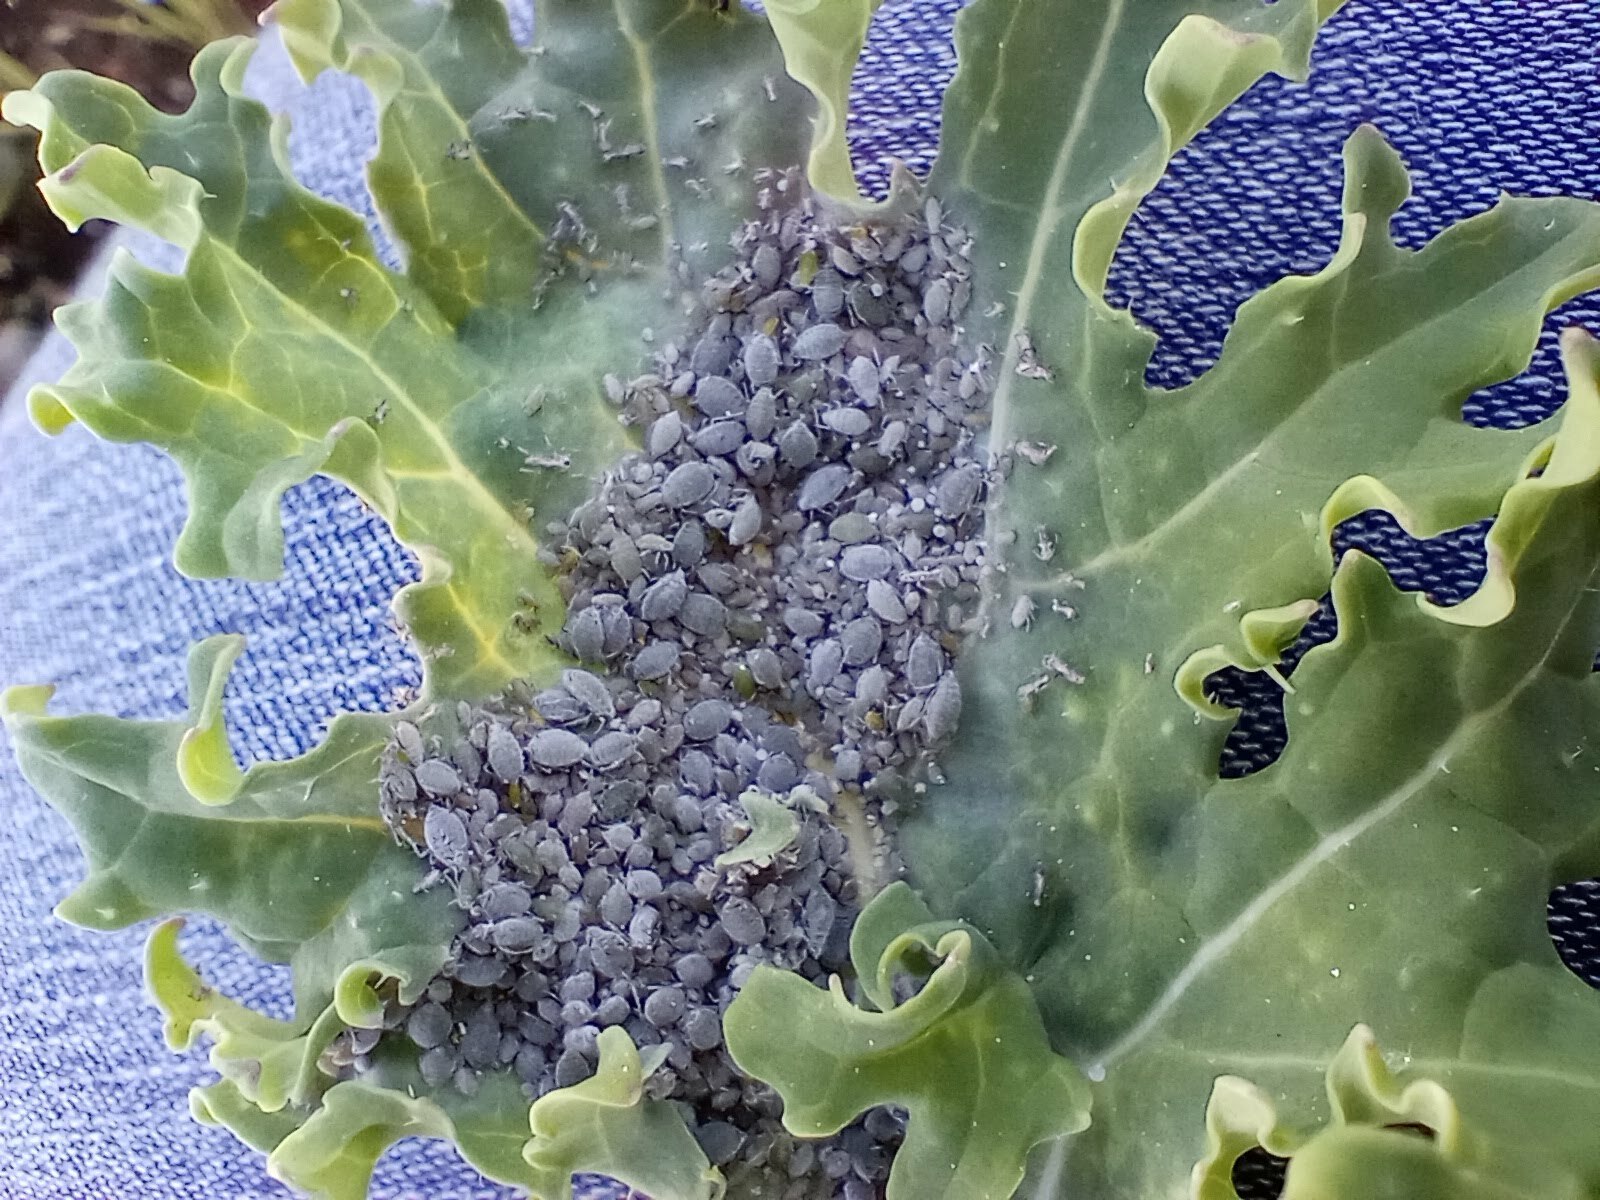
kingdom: Animalia
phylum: Arthropoda
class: Insecta
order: Hemiptera
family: Aphididae
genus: Brevicoryne
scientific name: Brevicoryne brassicae
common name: Cabbage aphid
